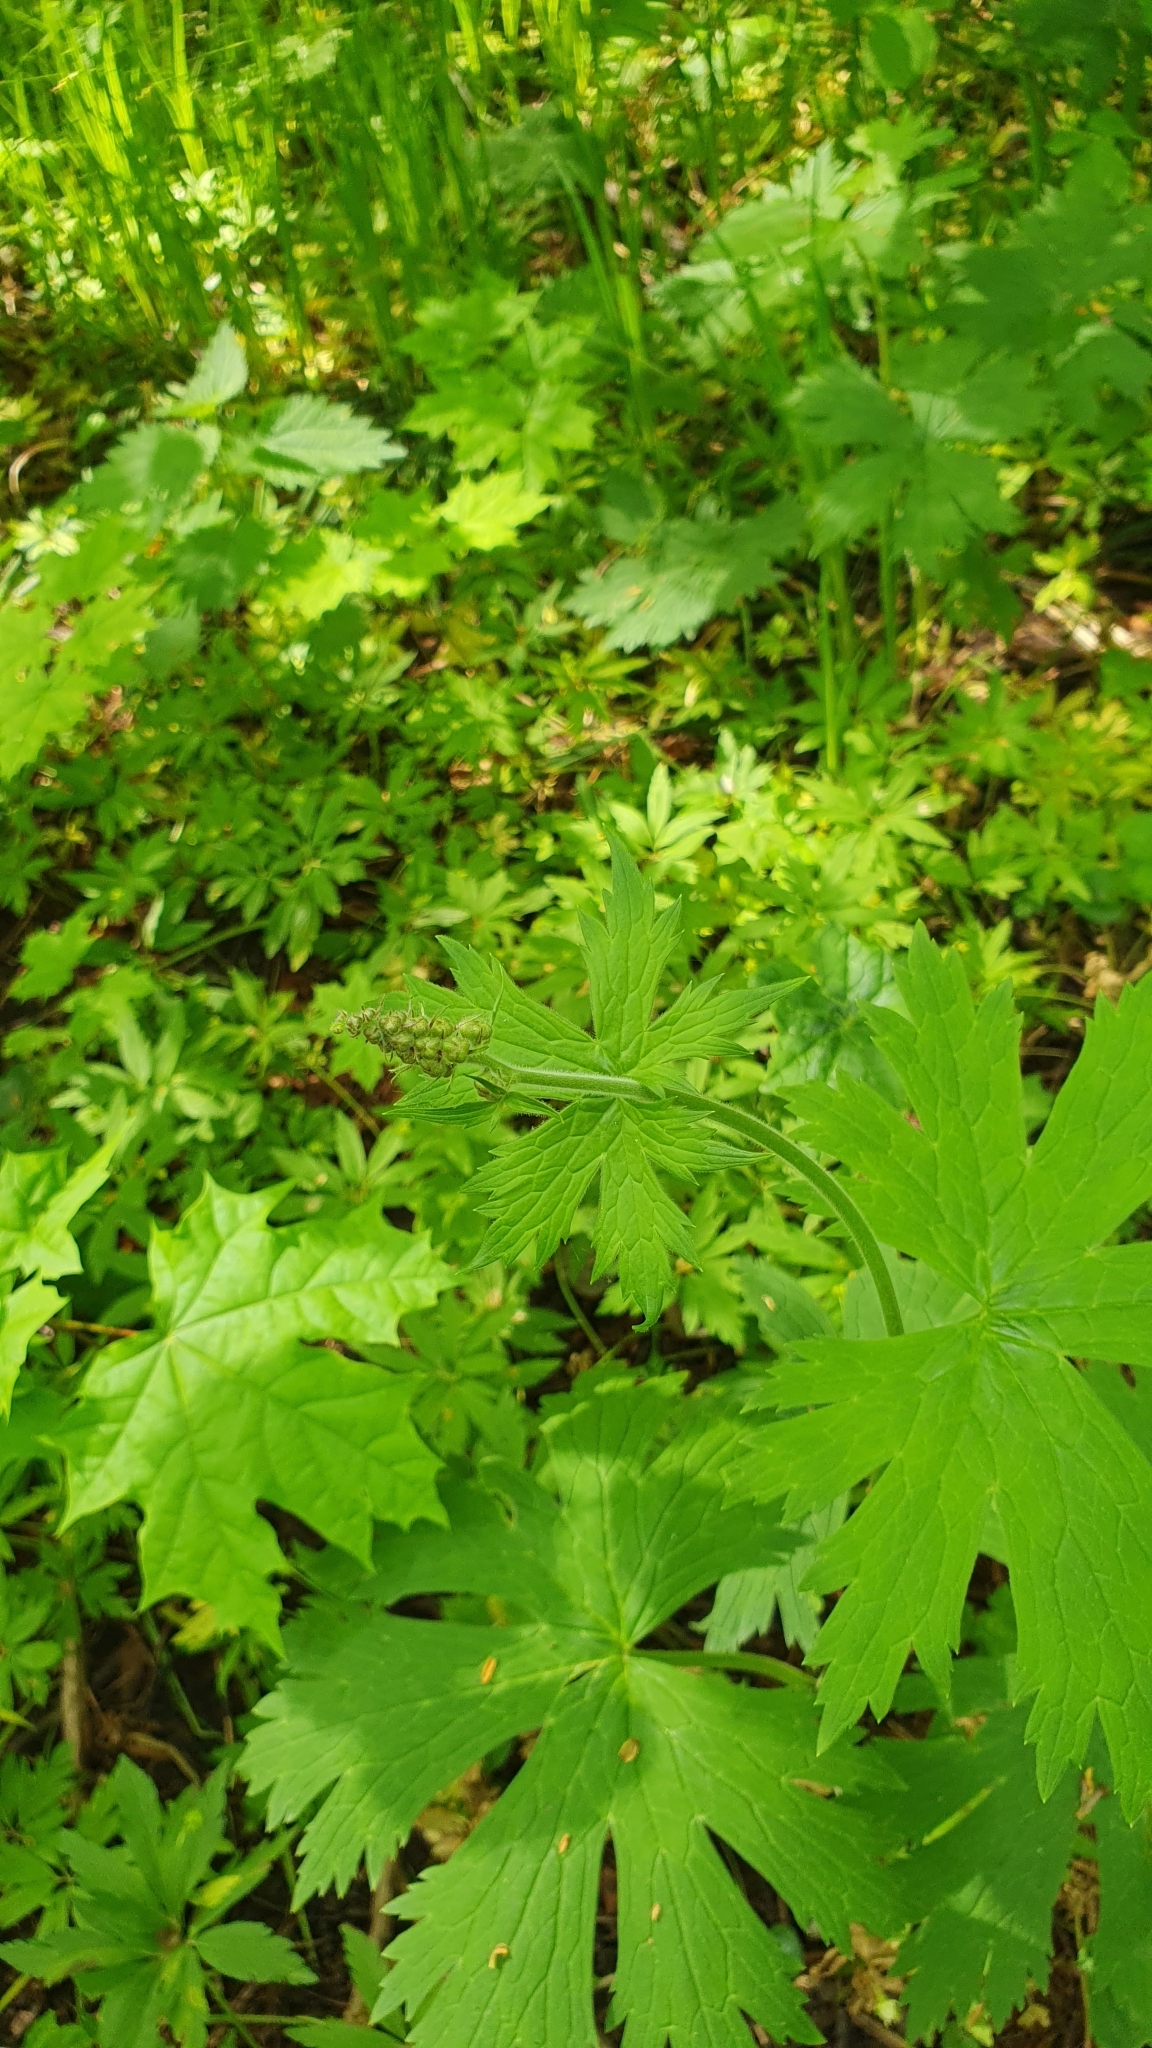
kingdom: Plantae
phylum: Tracheophyta
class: Magnoliopsida
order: Ranunculales
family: Ranunculaceae
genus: Aconitum
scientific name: Aconitum septentrionale
